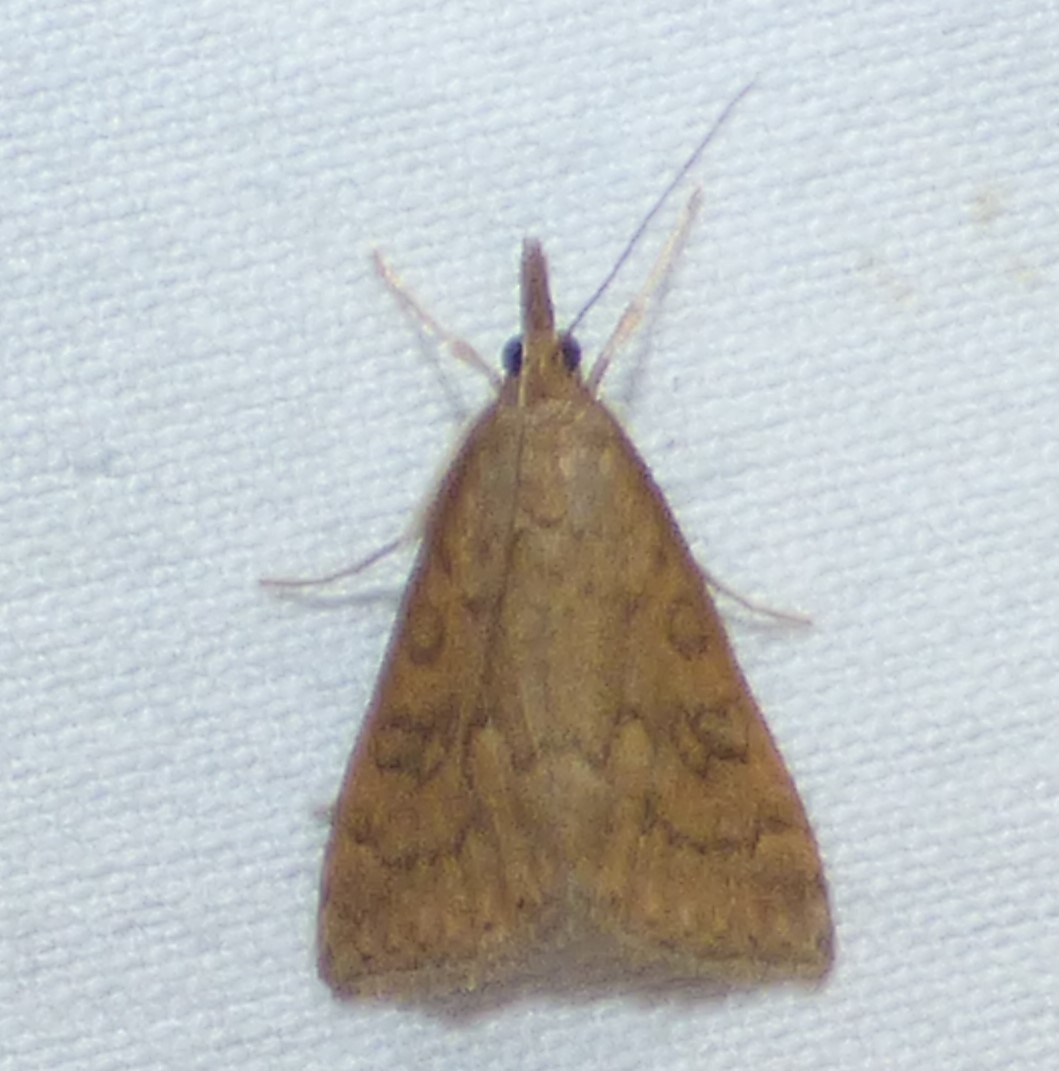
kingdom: Animalia
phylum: Arthropoda
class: Insecta
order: Lepidoptera
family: Crambidae
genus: Udea
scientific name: Udea rubigalis
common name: Celery leaftier moth
